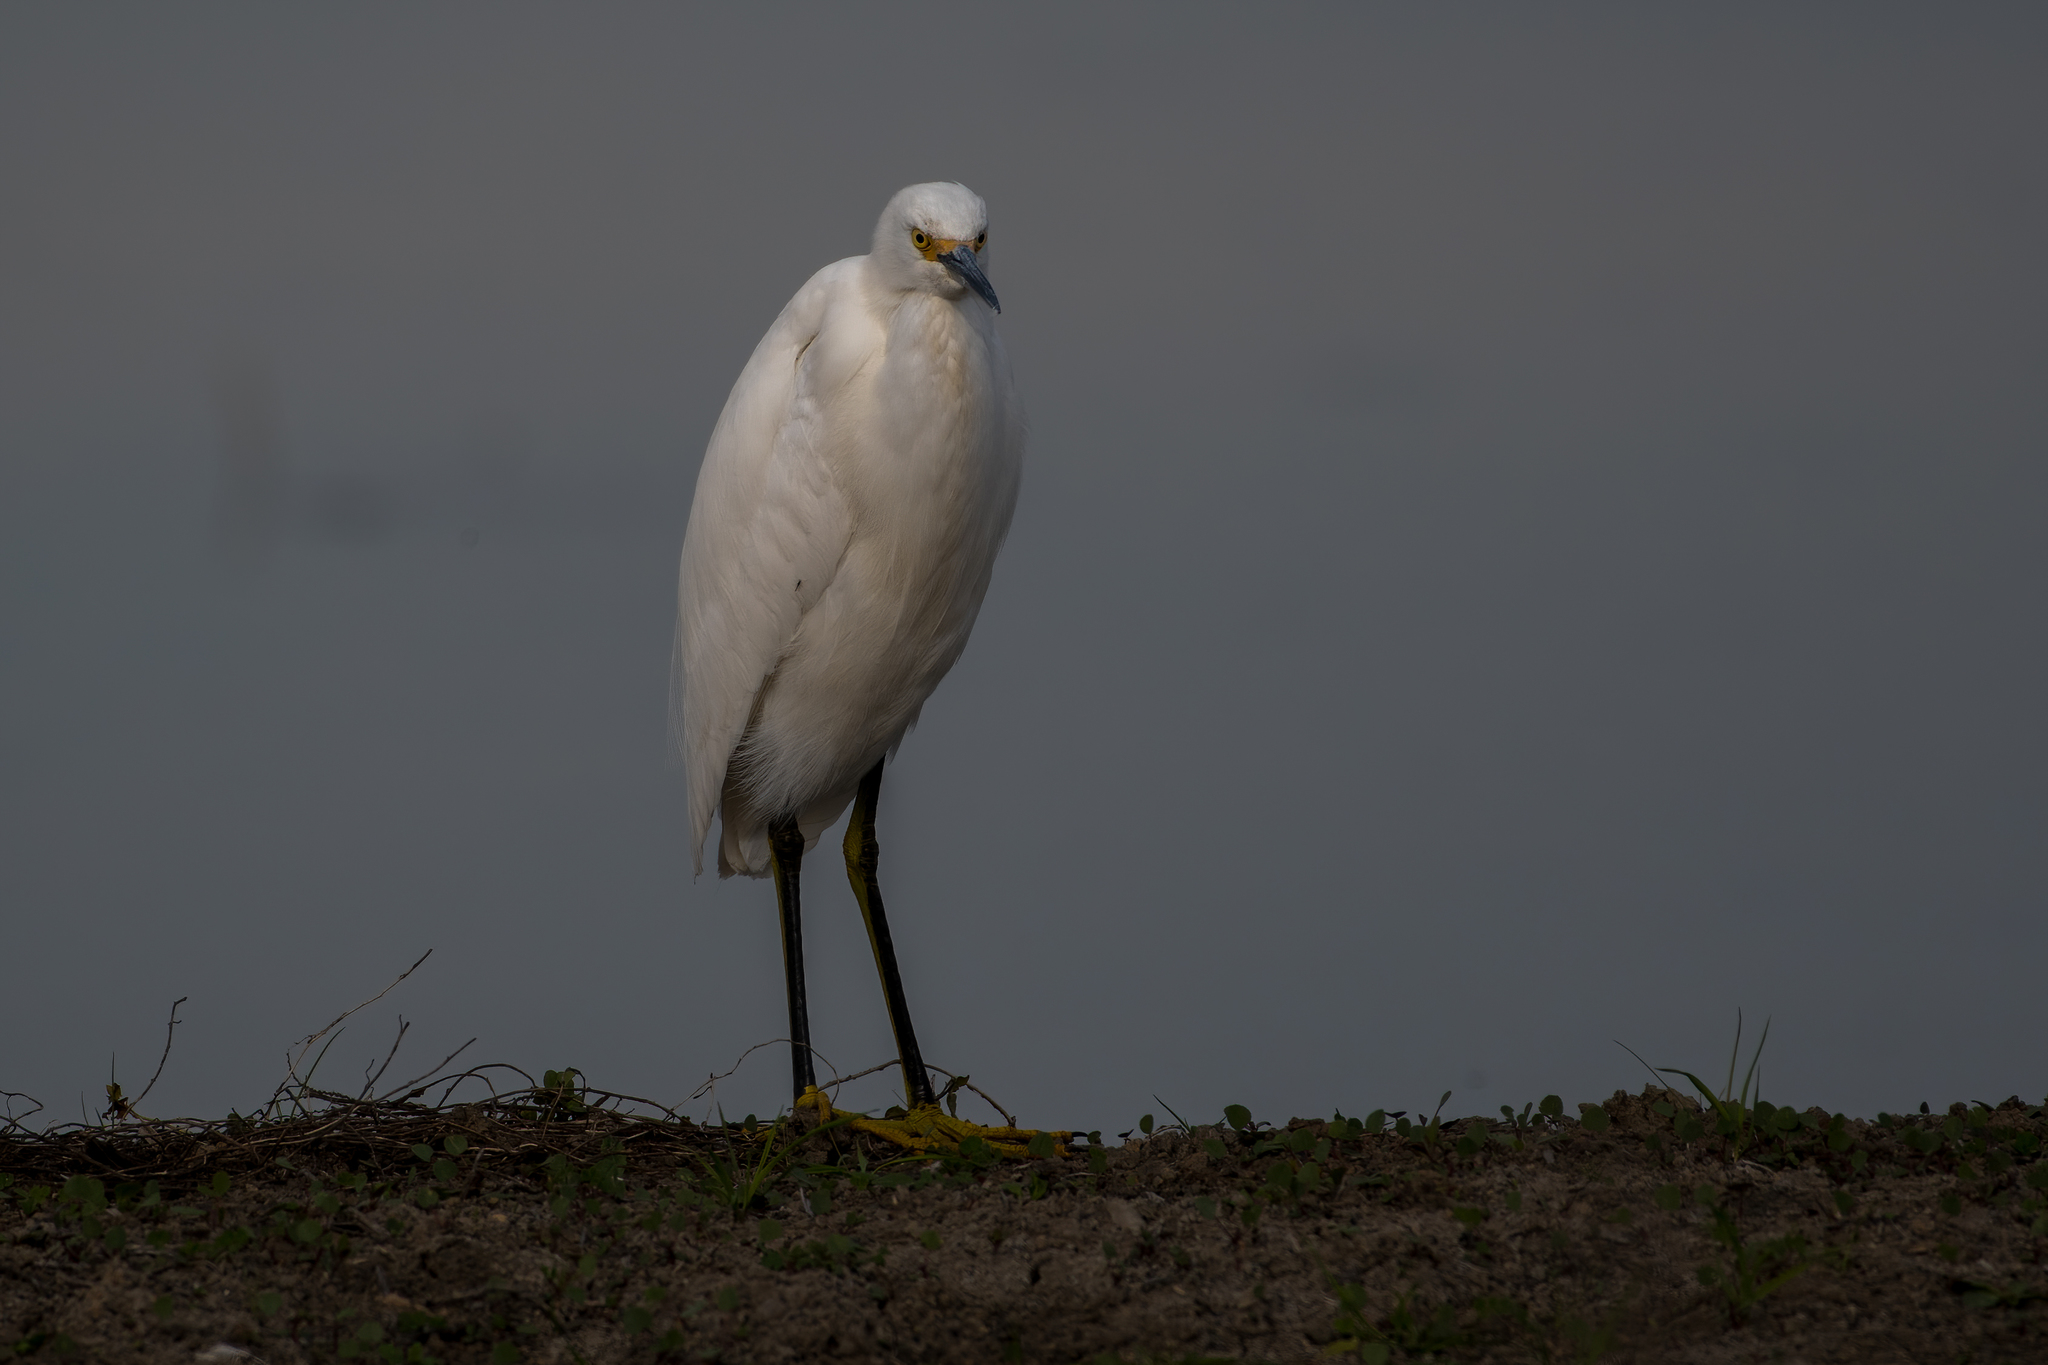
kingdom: Animalia
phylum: Chordata
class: Aves
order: Pelecaniformes
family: Ardeidae
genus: Egretta
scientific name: Egretta thula
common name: Snowy egret
